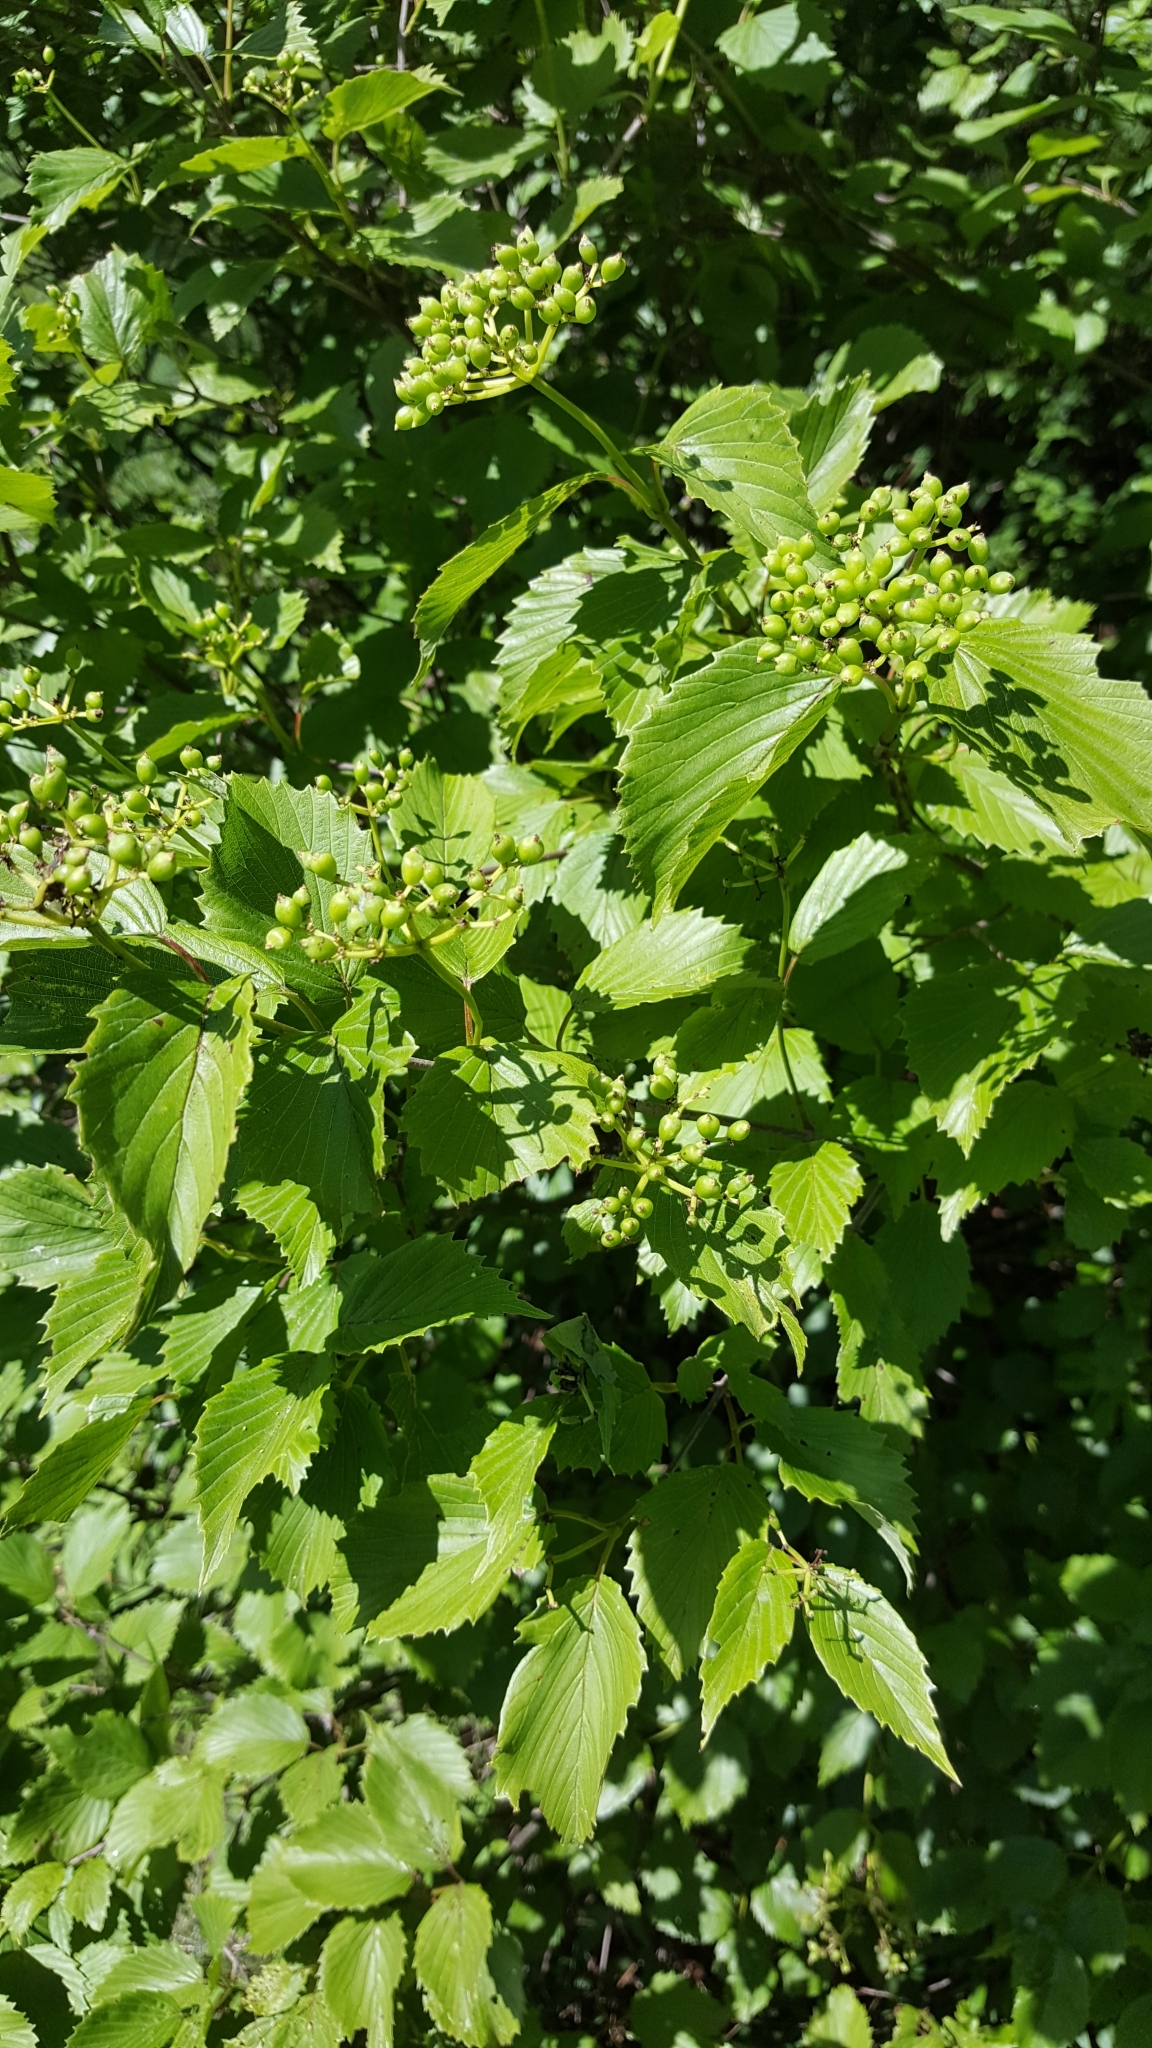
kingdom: Plantae
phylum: Tracheophyta
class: Magnoliopsida
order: Dipsacales
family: Viburnaceae
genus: Viburnum
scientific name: Viburnum dentatum
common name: Arrow-wood
